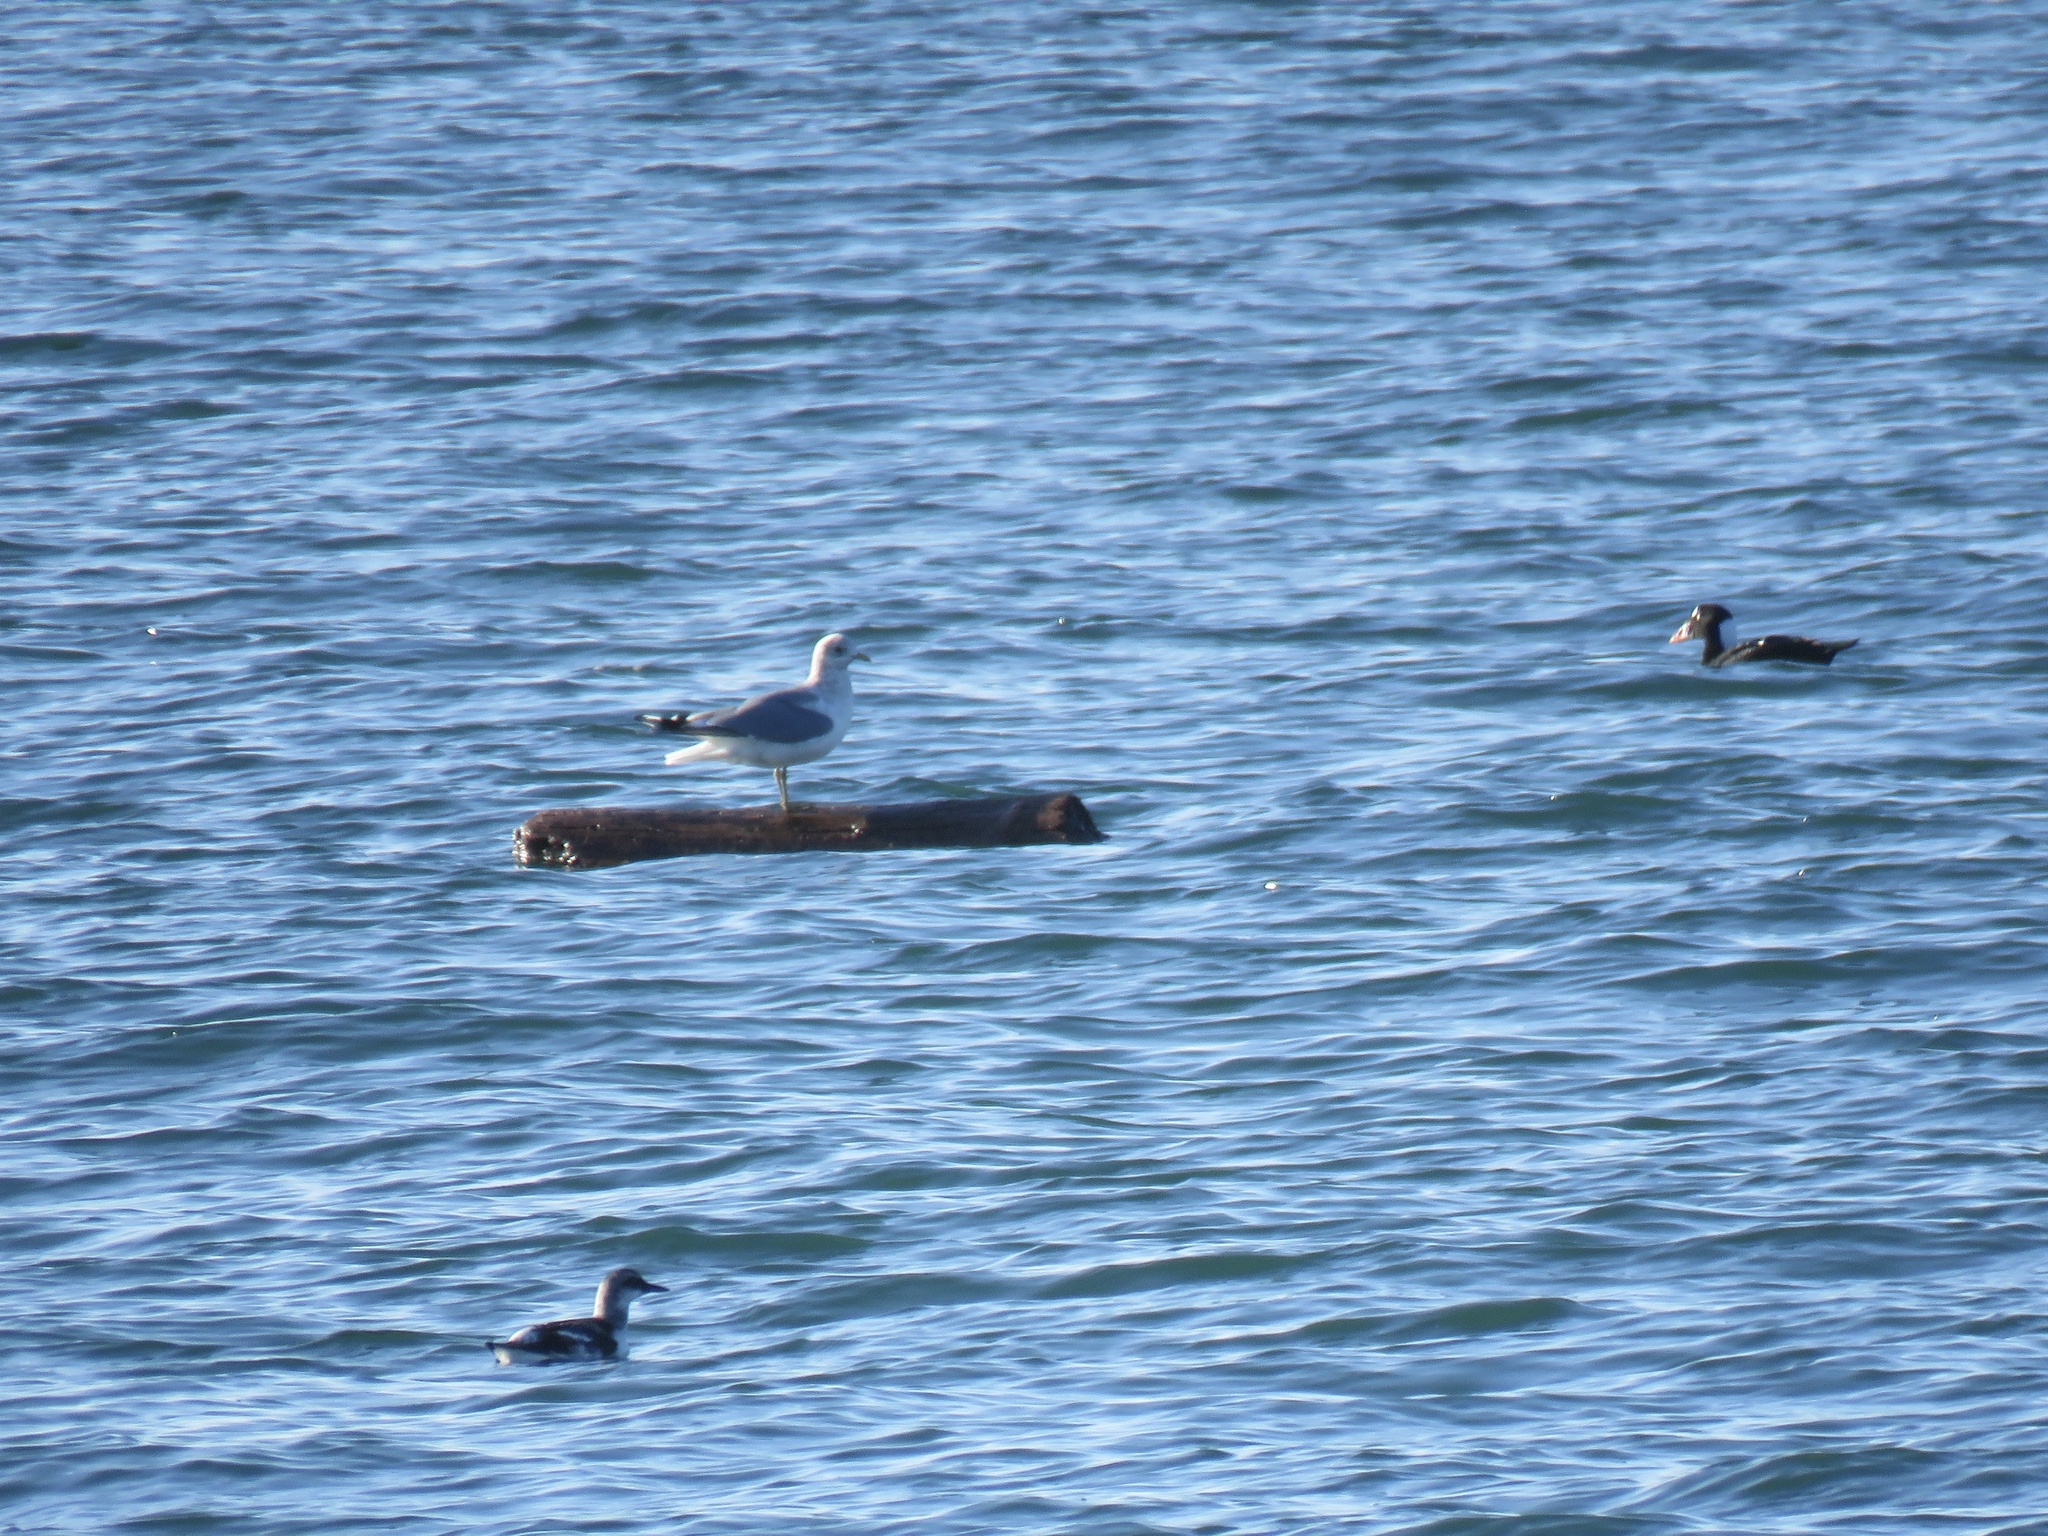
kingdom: Animalia
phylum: Chordata
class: Aves
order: Charadriiformes
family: Alcidae
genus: Cepphus
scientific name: Cepphus columba
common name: Pigeon guillemot
